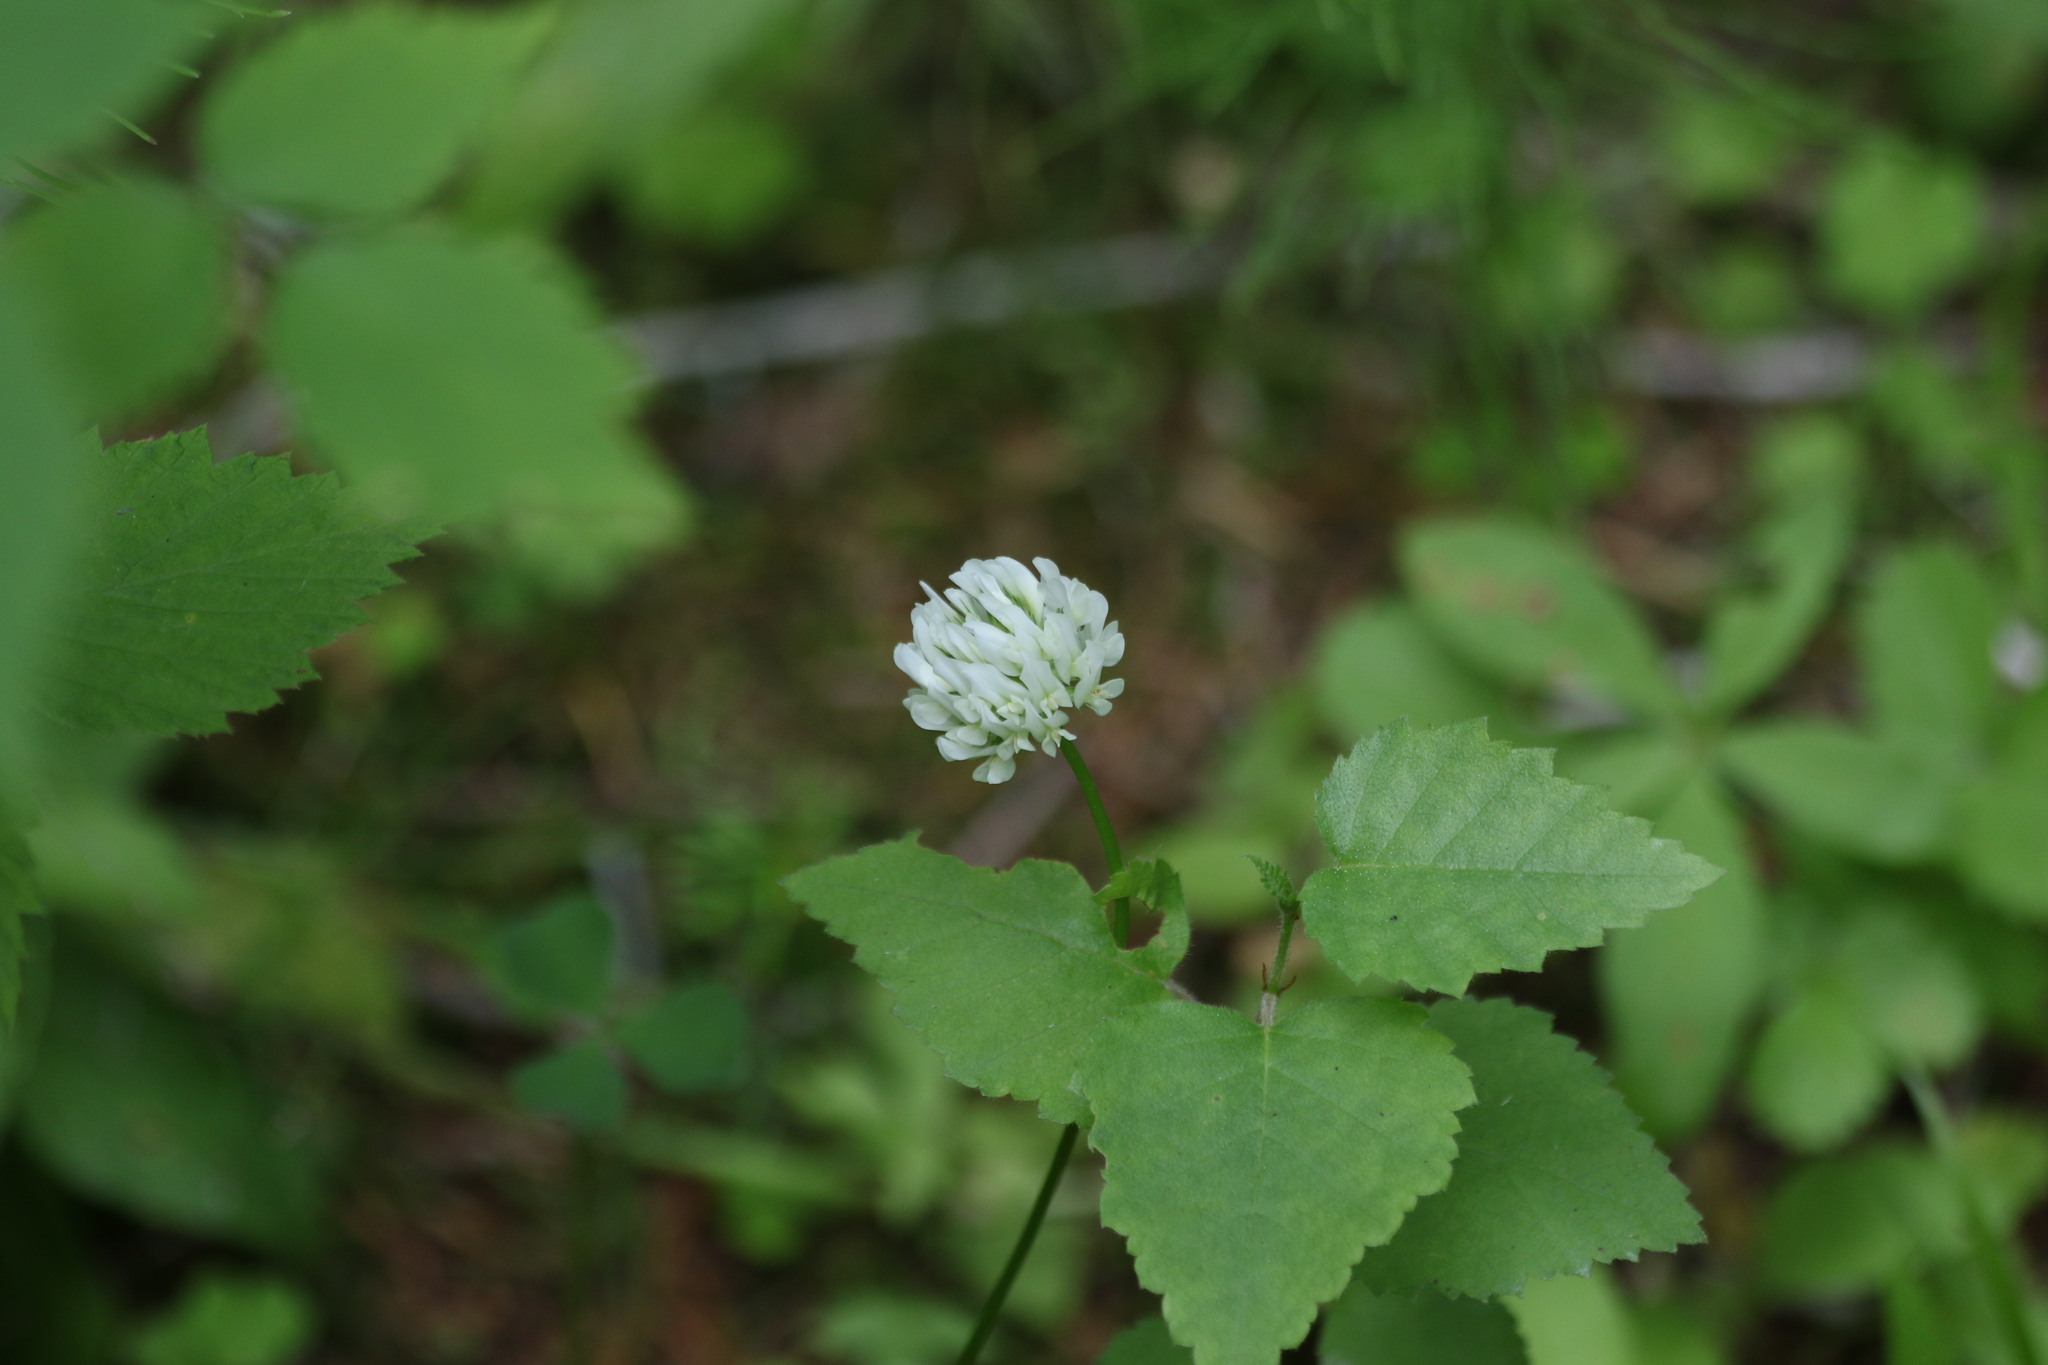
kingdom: Plantae
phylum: Tracheophyta
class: Magnoliopsida
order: Fabales
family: Fabaceae
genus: Trifolium
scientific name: Trifolium repens
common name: White clover
